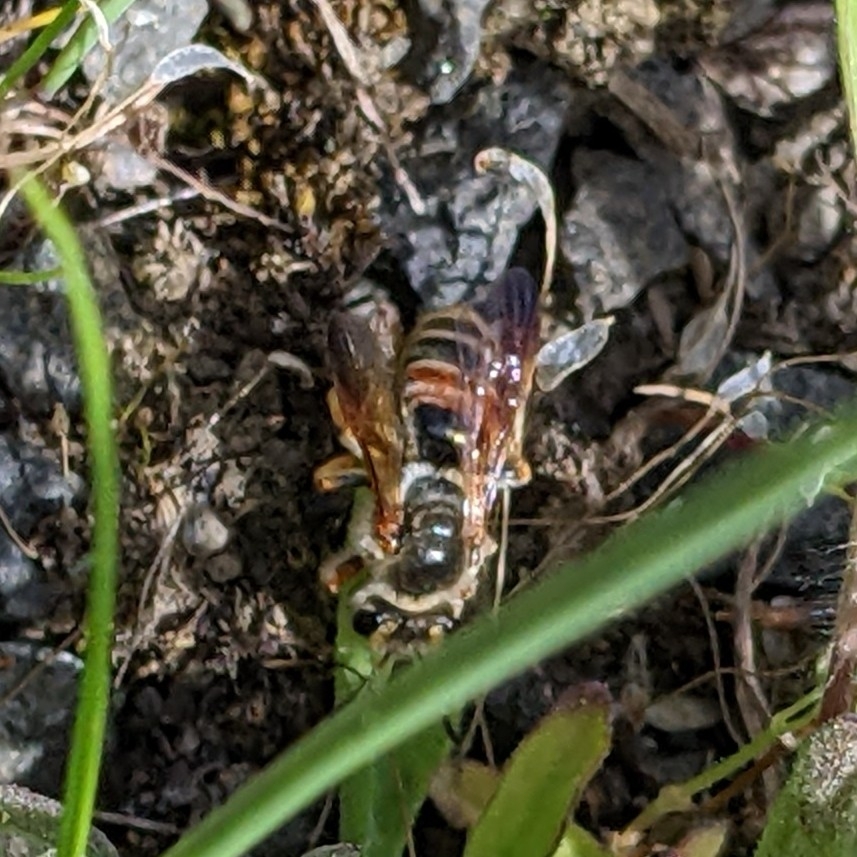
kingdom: Animalia
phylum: Arthropoda
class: Insecta
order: Hymenoptera
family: Andrenidae
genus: Andrena
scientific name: Andrena prunorum
